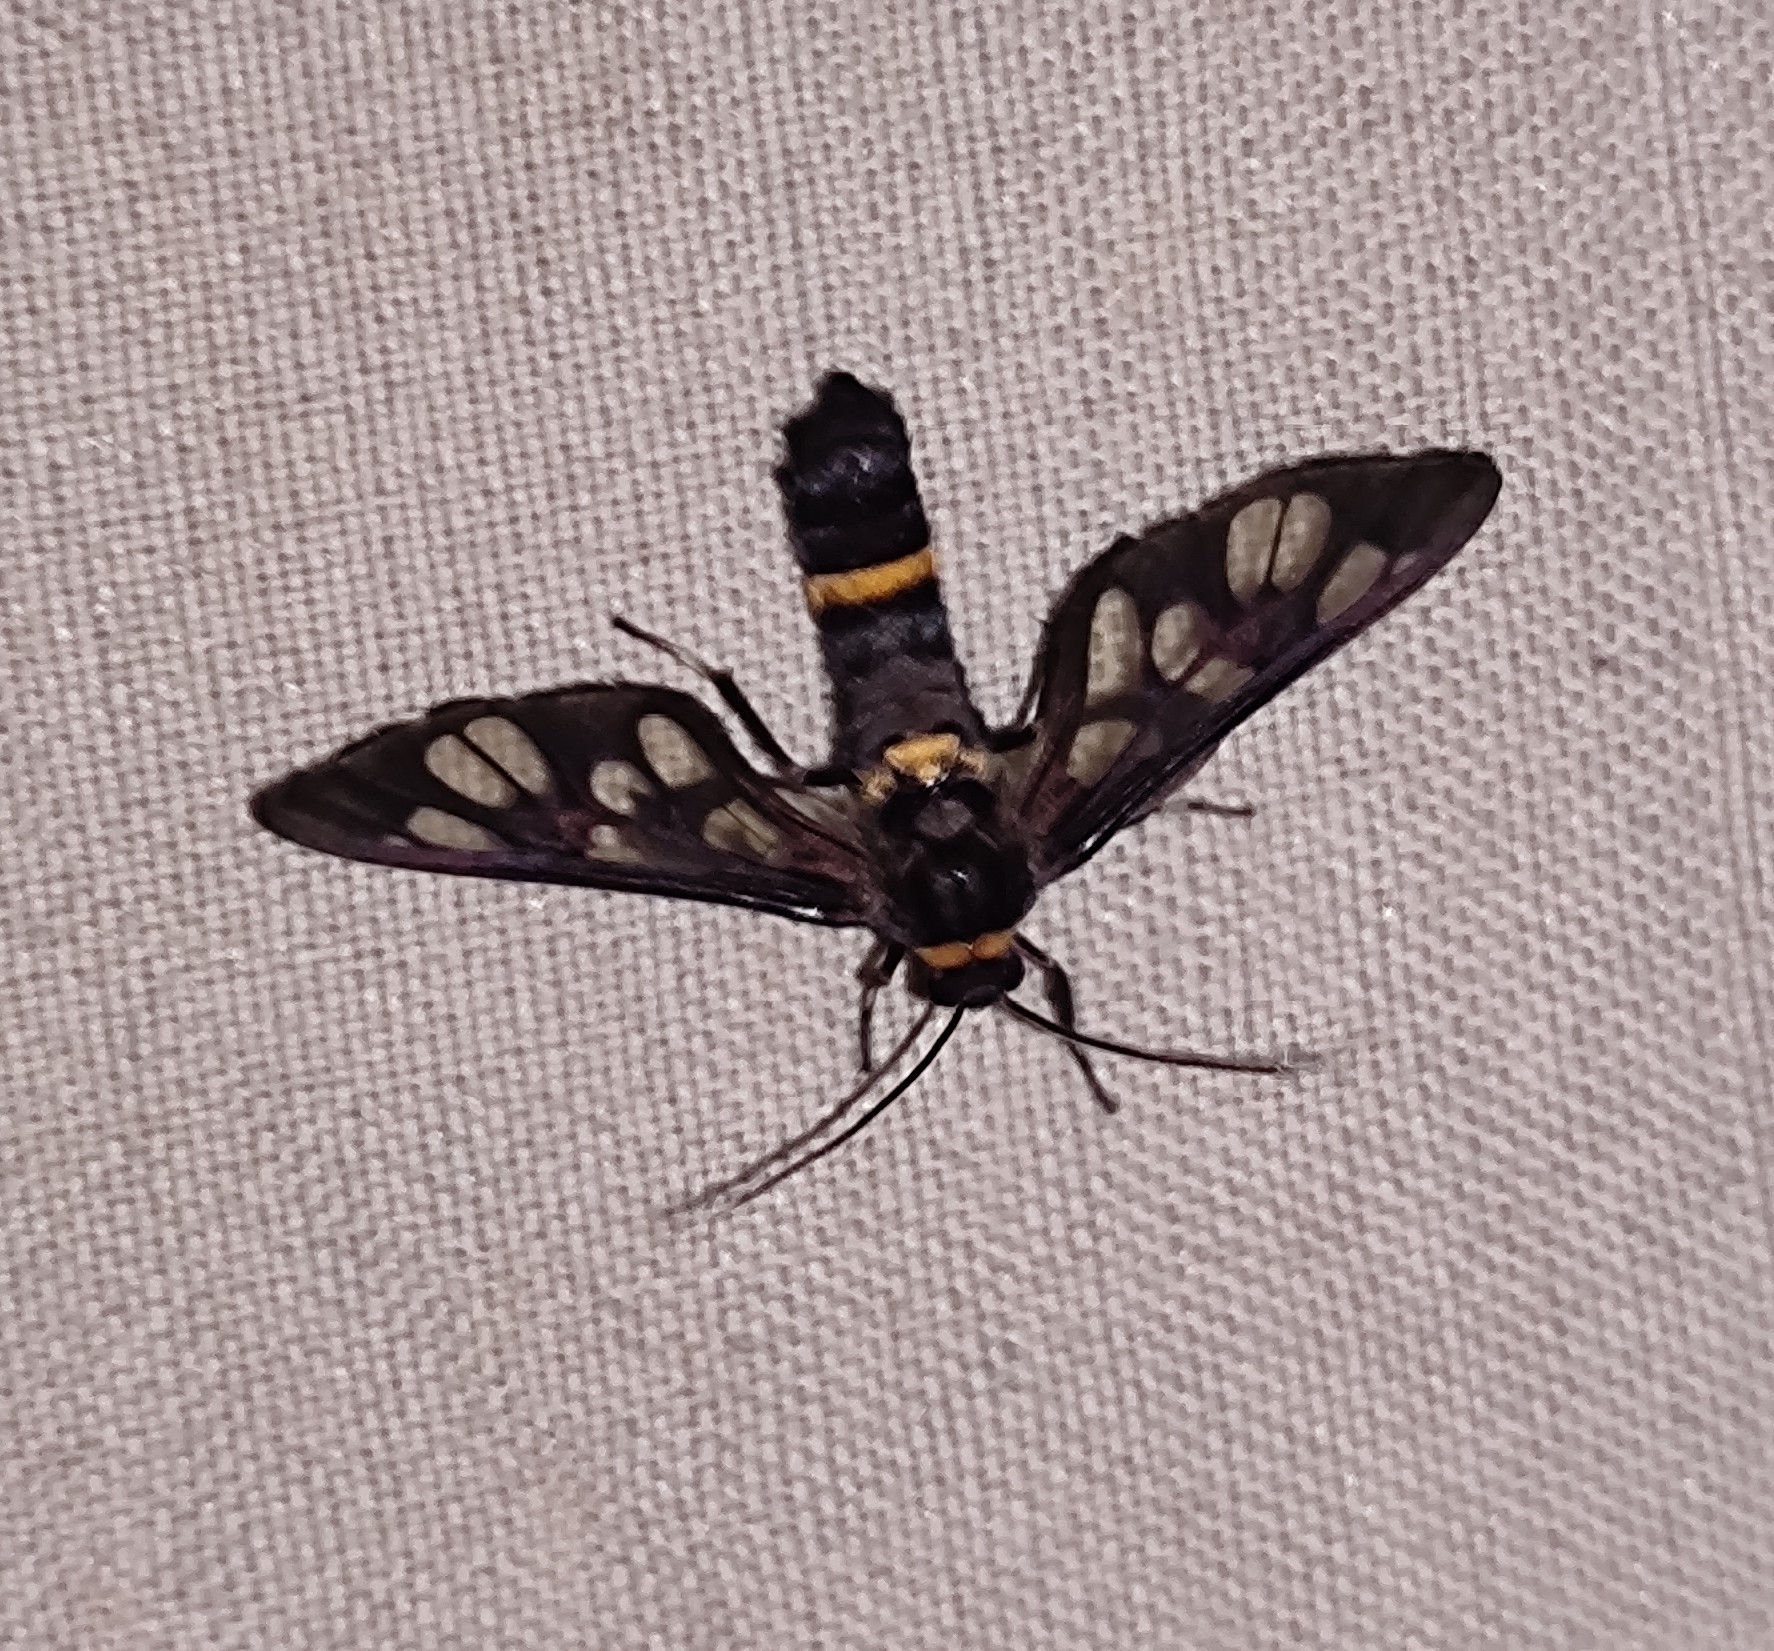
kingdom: Animalia
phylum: Arthropoda
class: Insecta
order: Lepidoptera
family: Erebidae
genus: Syntomoides
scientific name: Syntomoides imaon
